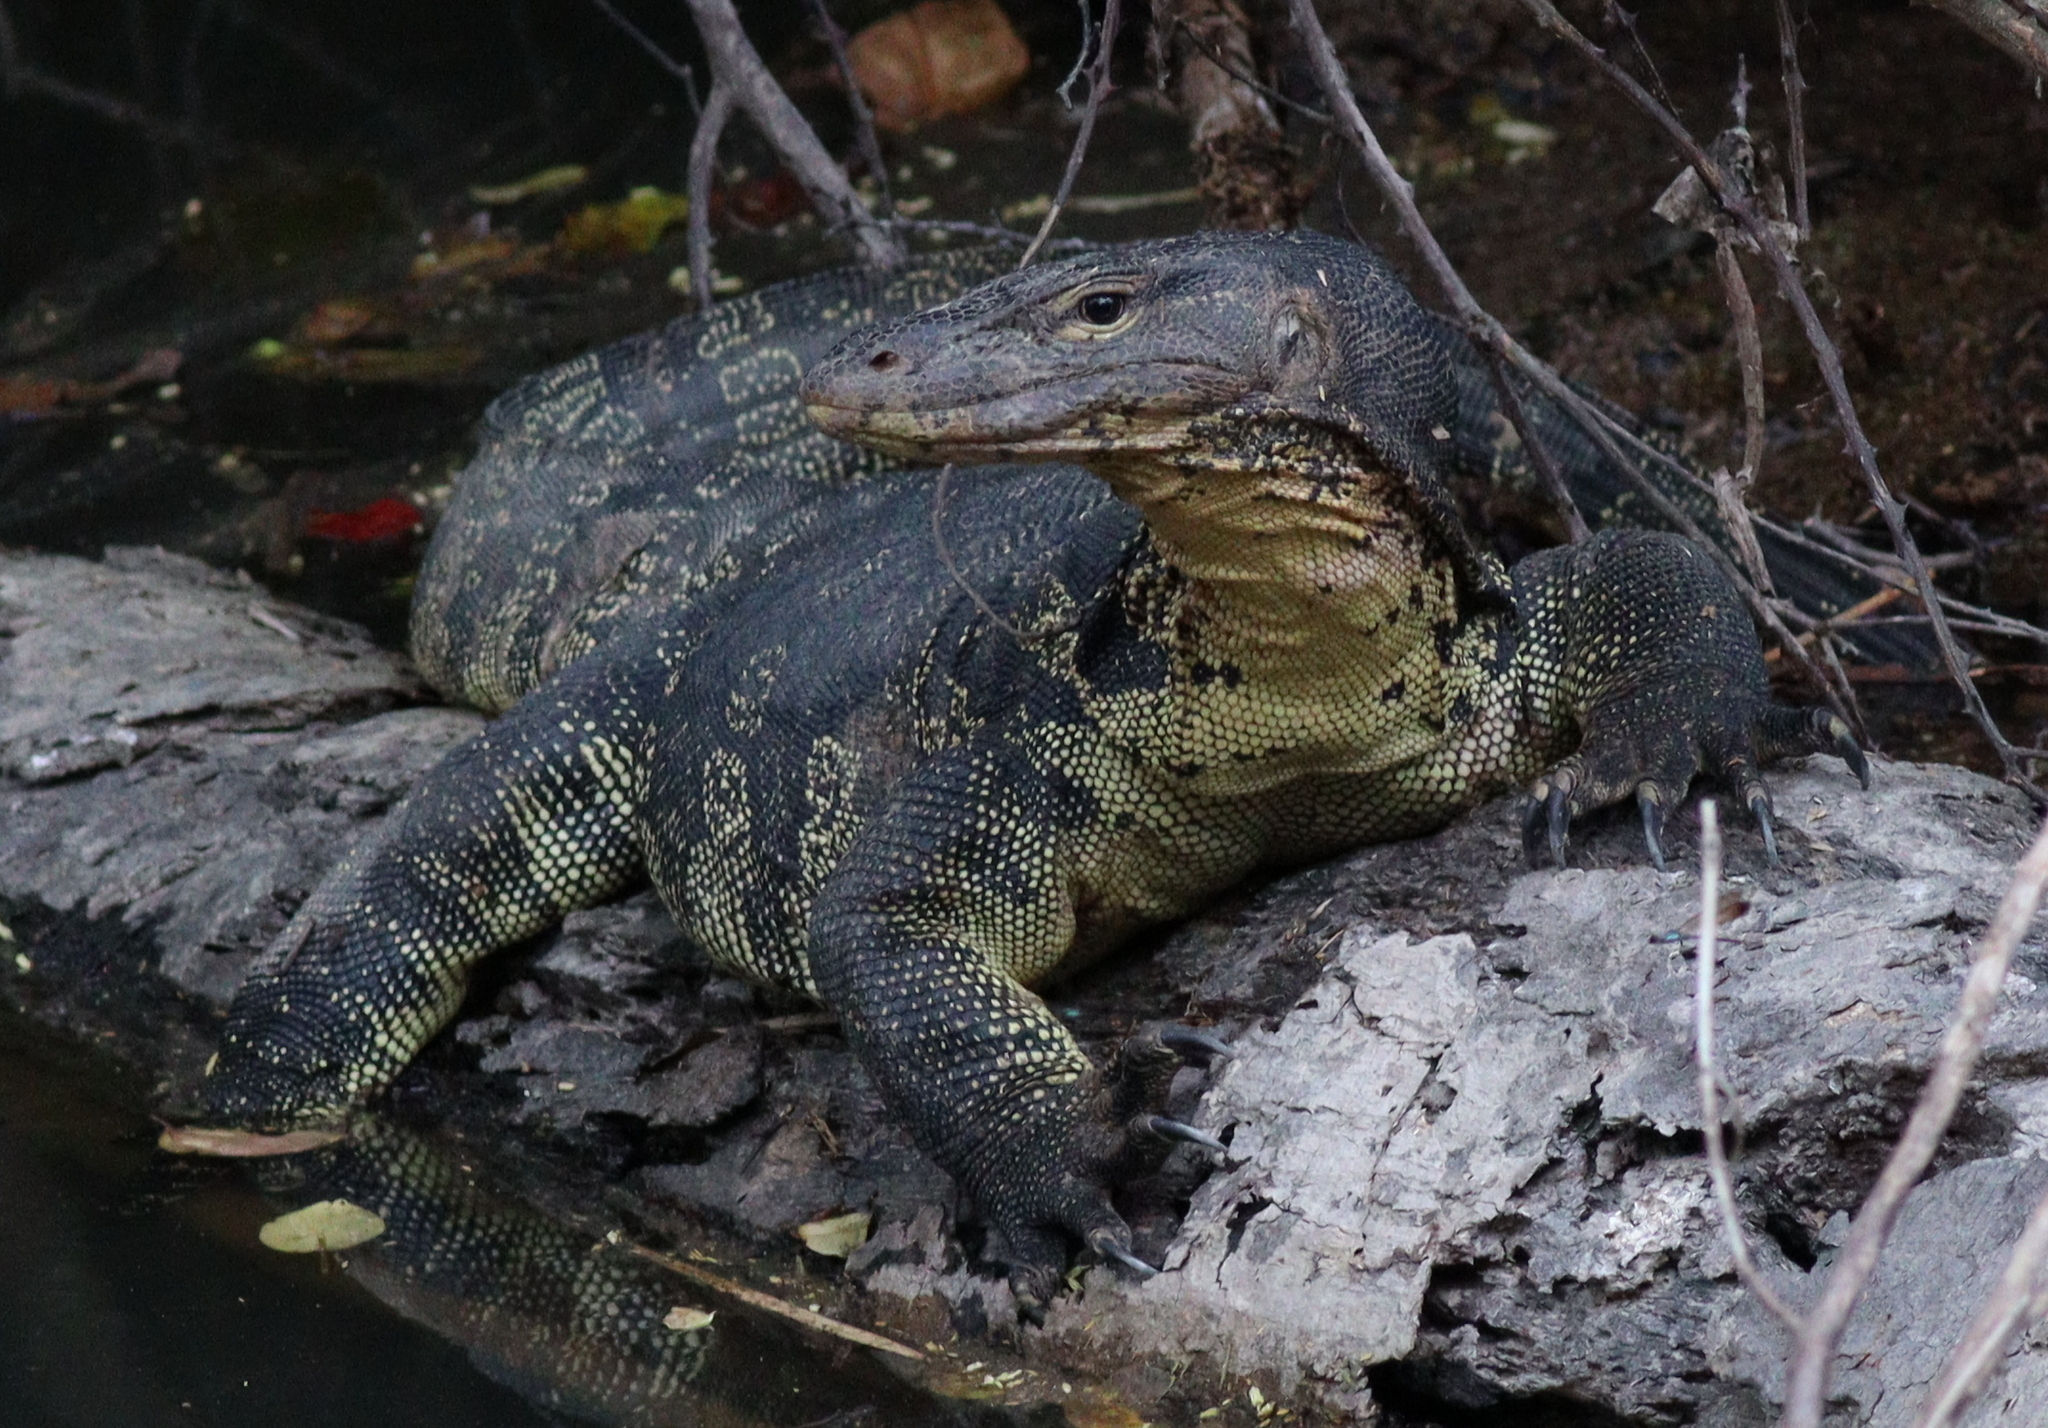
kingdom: Animalia
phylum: Chordata
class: Squamata
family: Varanidae
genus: Varanus
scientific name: Varanus salvator
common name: Common water monitor
